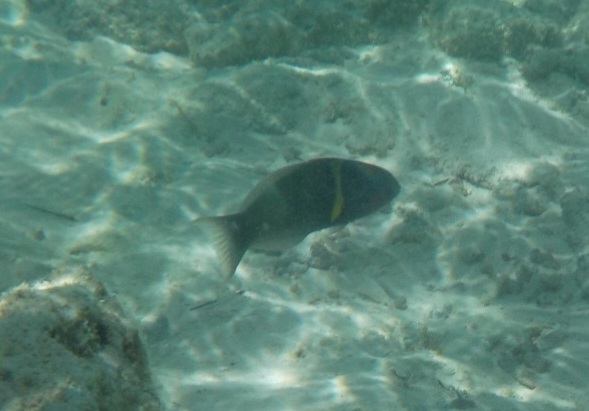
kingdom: Animalia
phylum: Chordata
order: Perciformes
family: Labridae
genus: Thalassoma
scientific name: Thalassoma hebraicum
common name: Goldbar wrasse
